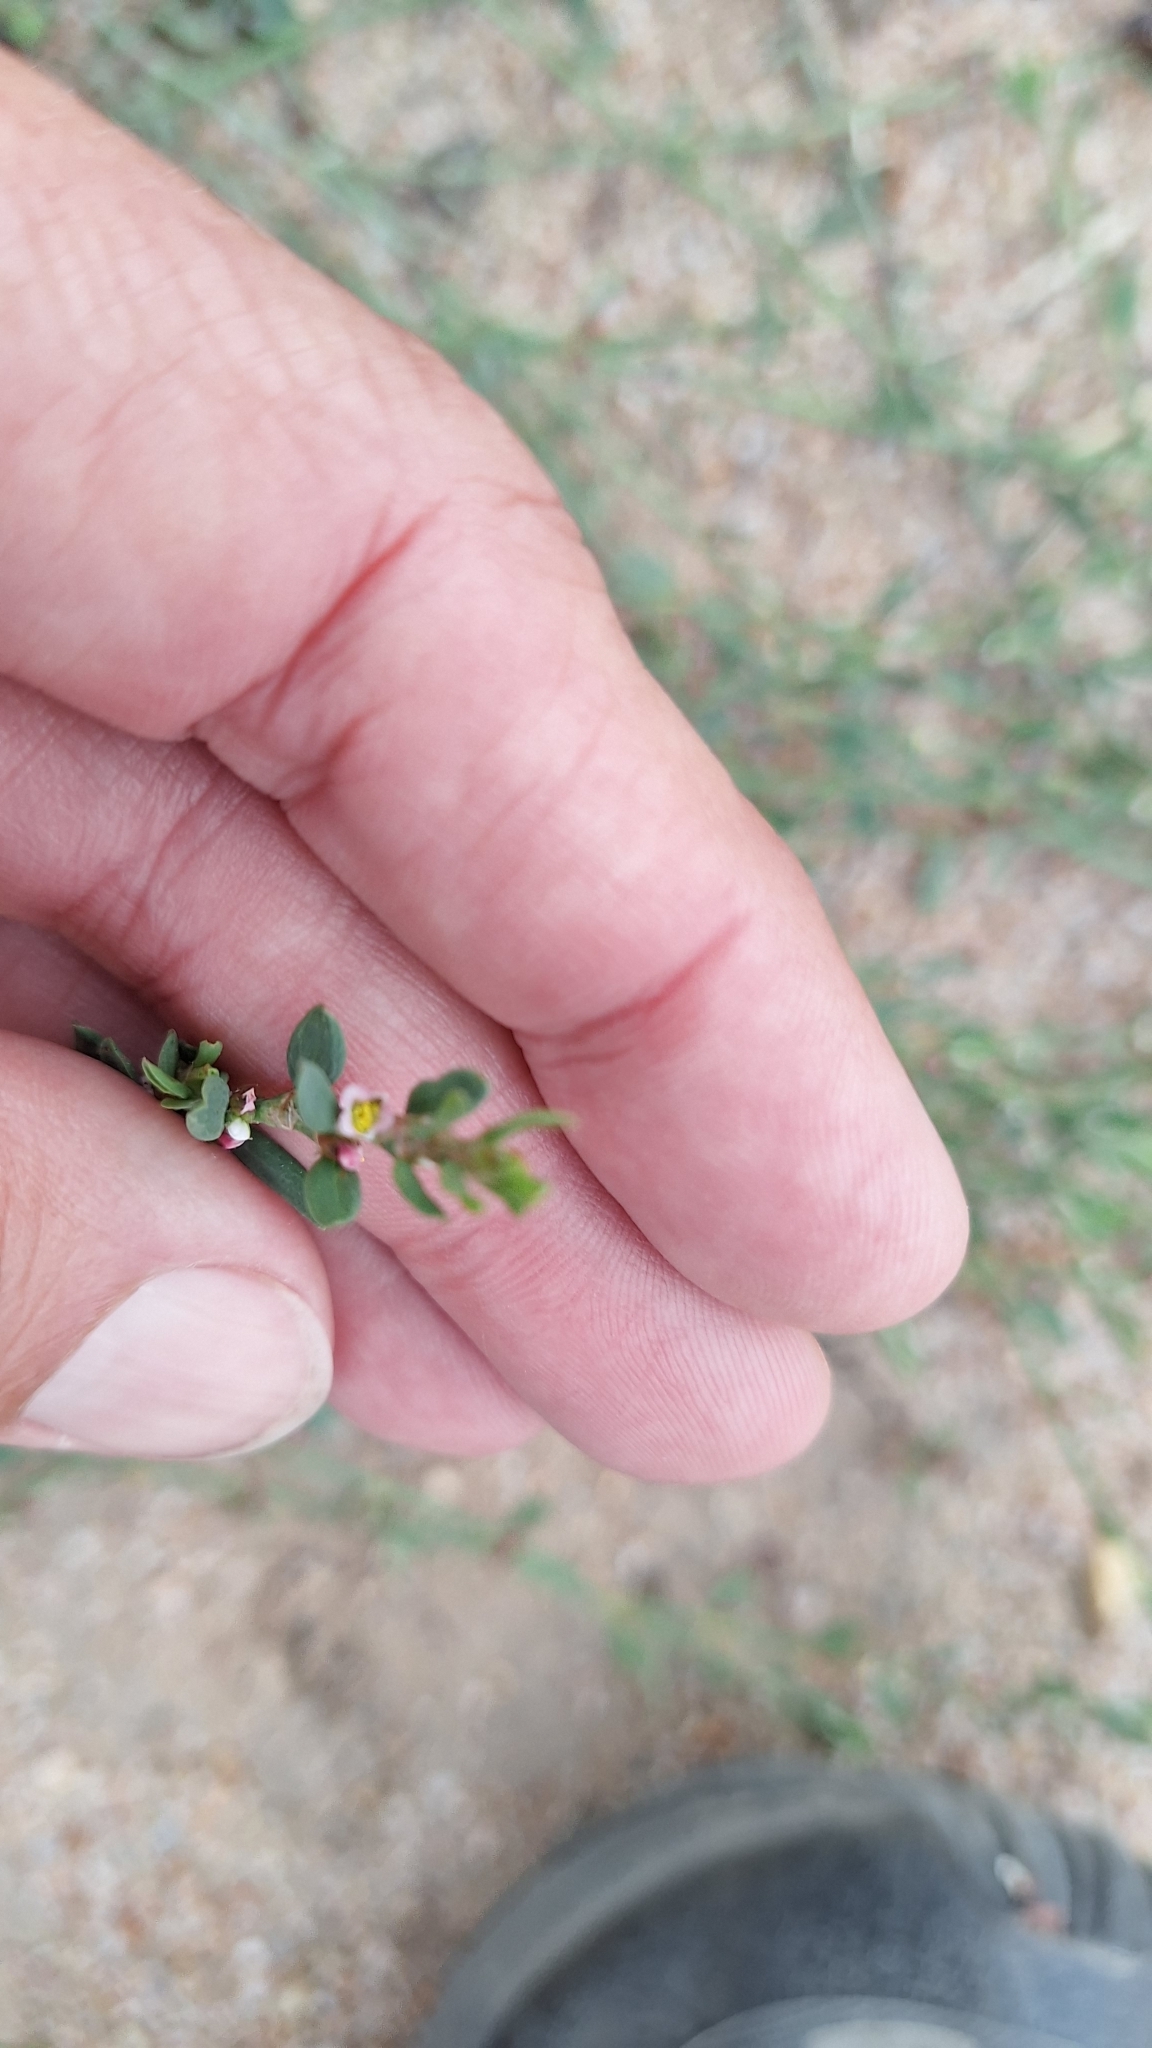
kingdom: Plantae
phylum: Tracheophyta
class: Magnoliopsida
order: Caryophyllales
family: Polygonaceae
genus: Polygonum
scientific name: Polygonum aviculare
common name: Prostrate knotweed
